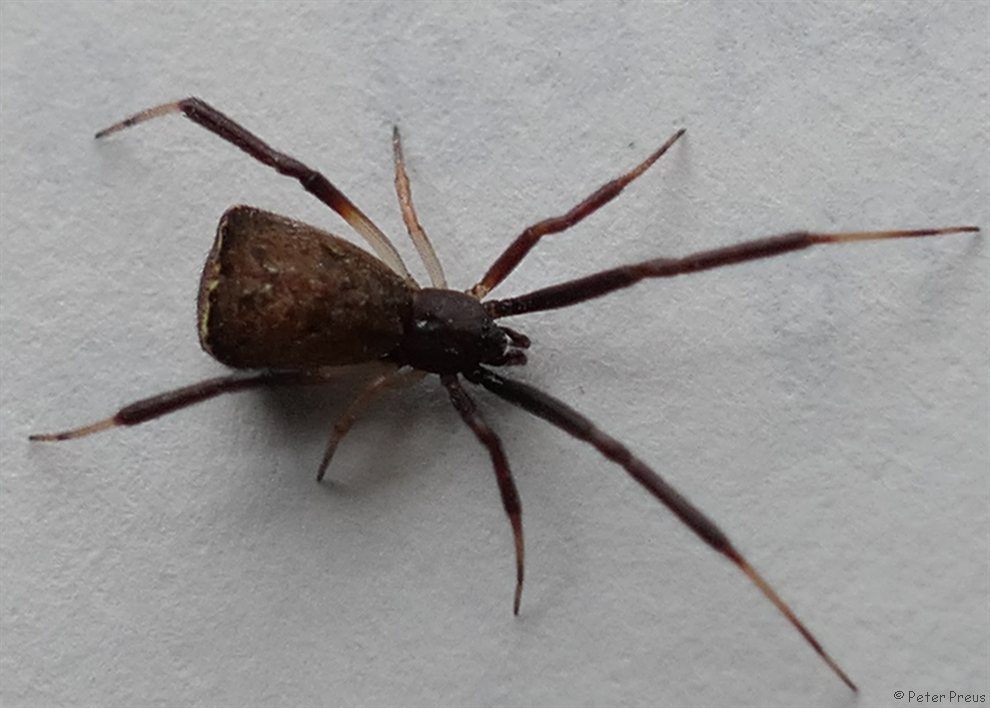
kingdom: Animalia
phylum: Arthropoda
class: Arachnida
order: Araneae
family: Theridiidae
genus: Episinus
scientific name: Episinus truncatus
